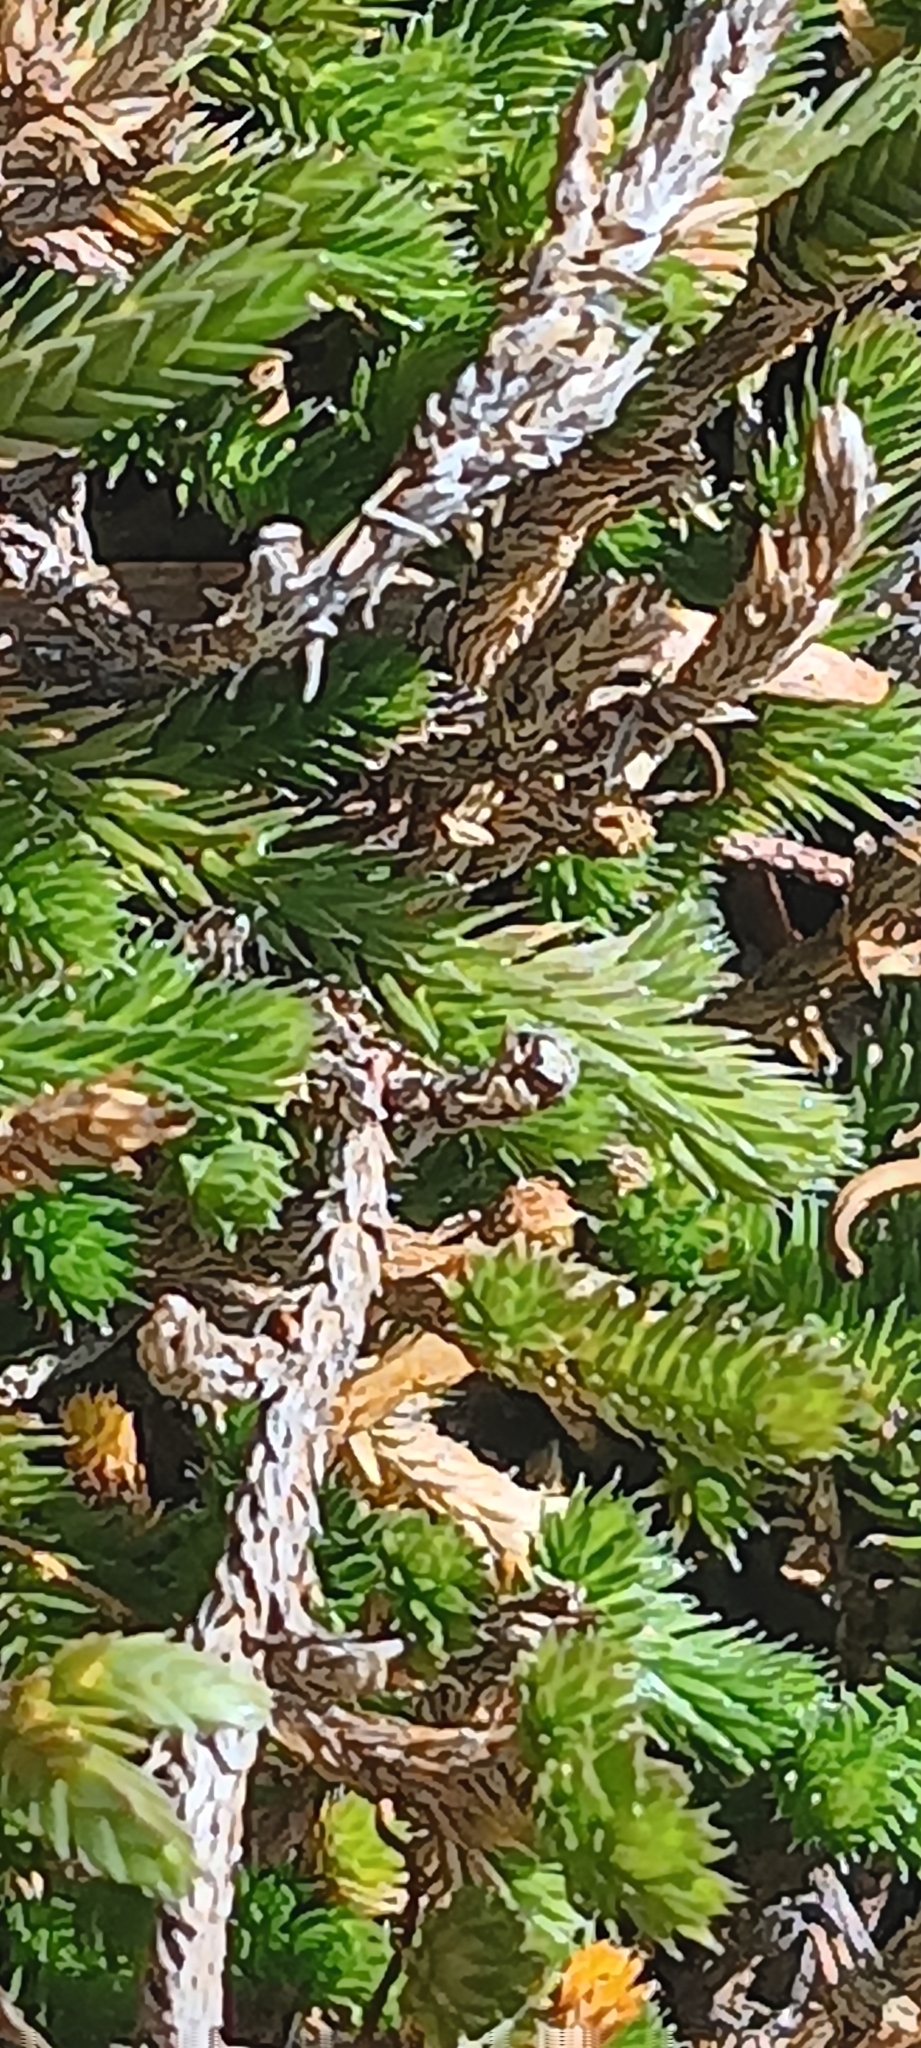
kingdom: Plantae
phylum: Tracheophyta
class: Lycopodiopsida
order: Selaginellales
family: Selaginellaceae
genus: Selaginella
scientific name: Selaginella wallacei
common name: Wallace's selaginella
